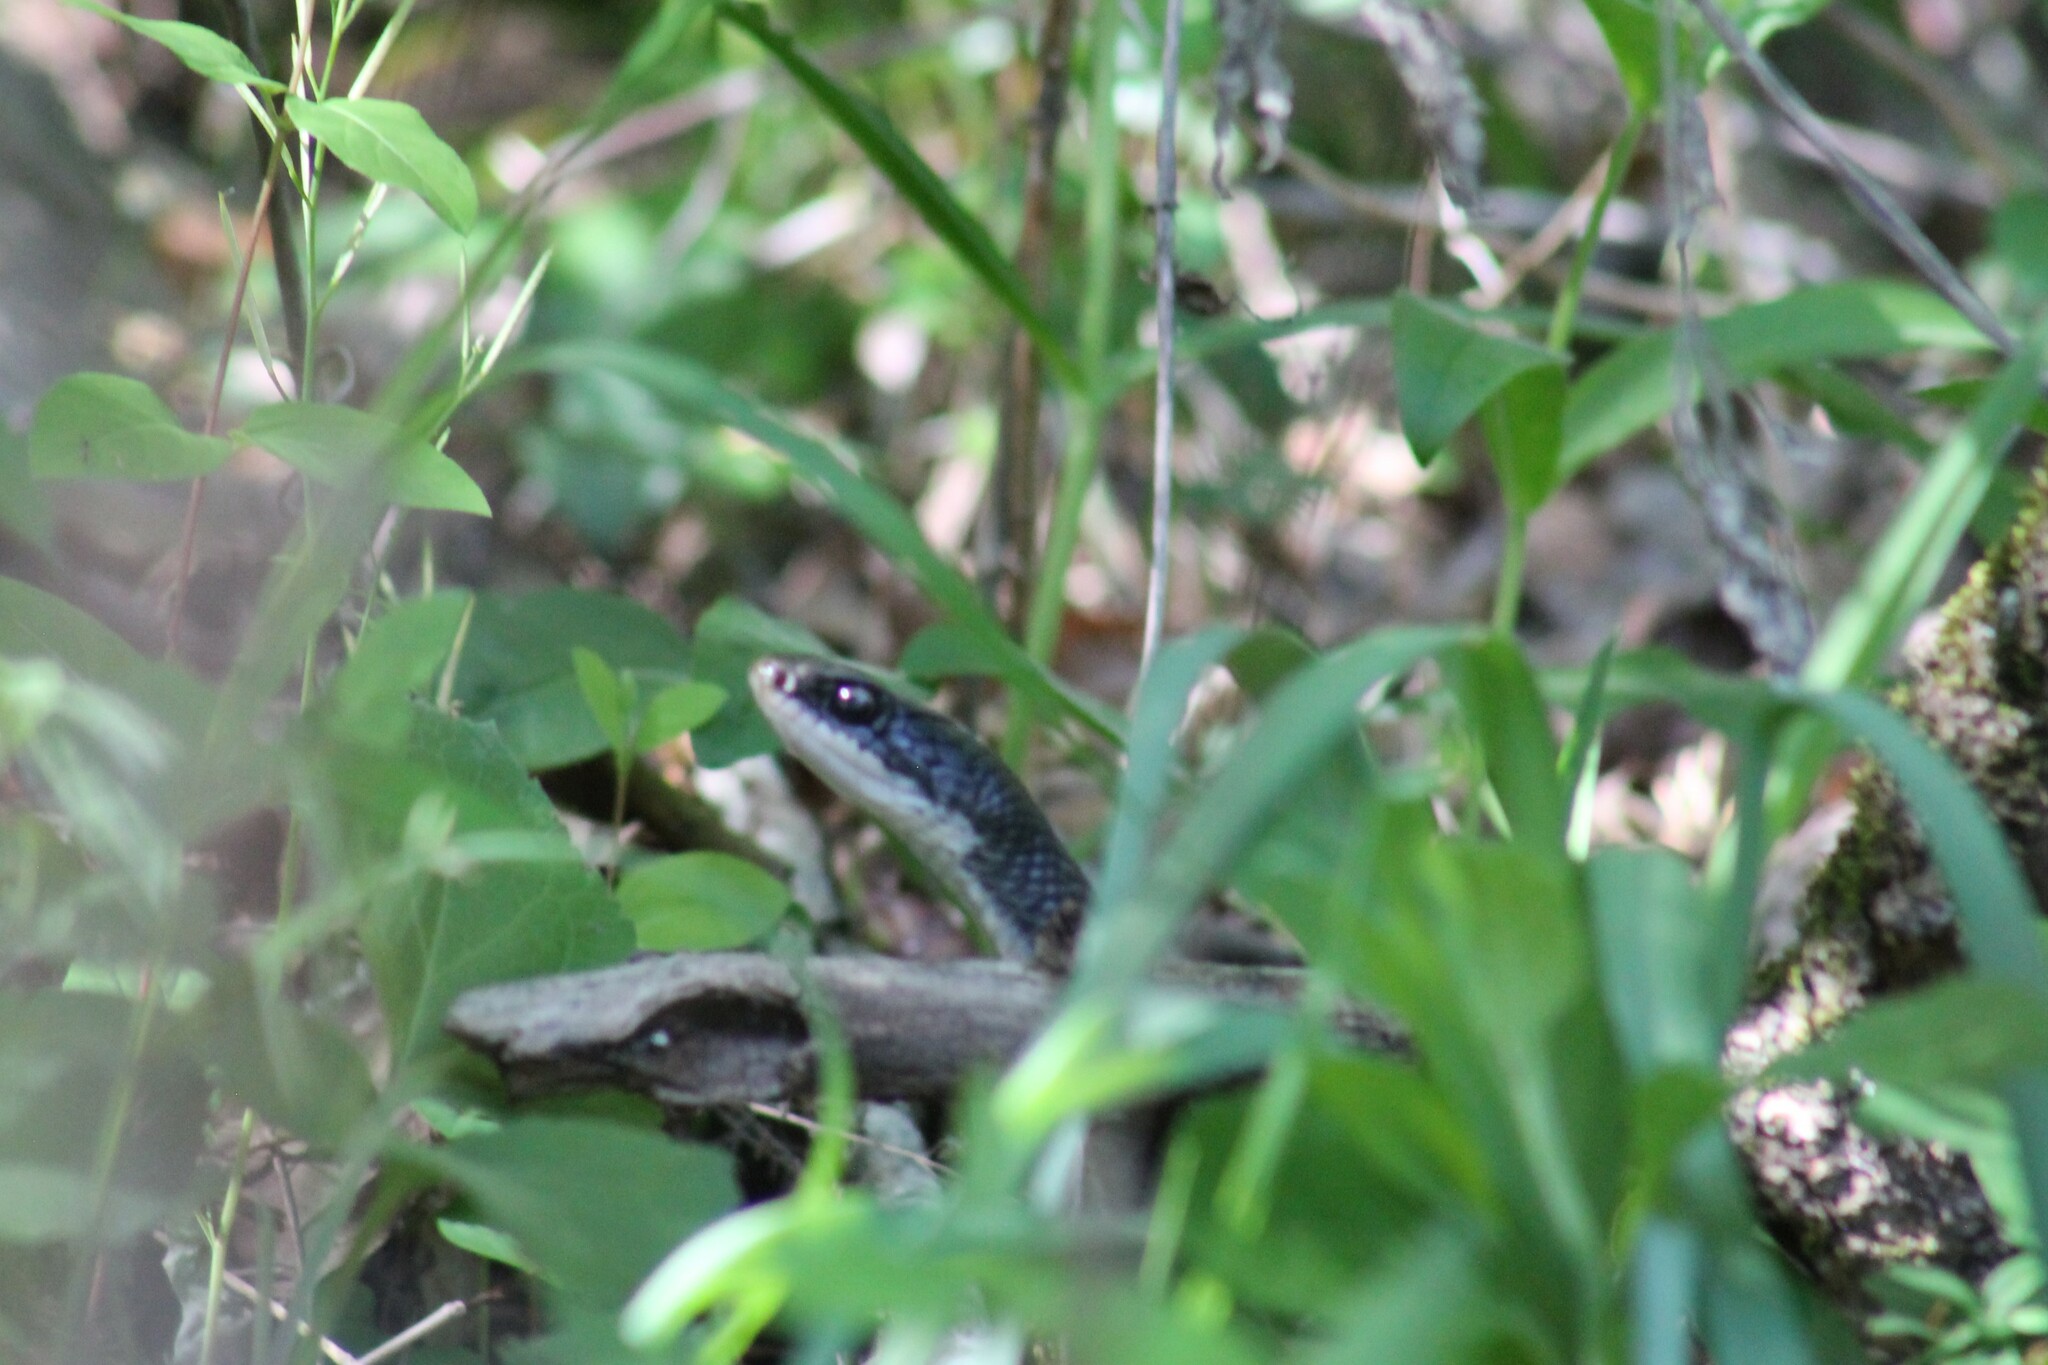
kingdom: Animalia
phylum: Chordata
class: Squamata
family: Colubridae
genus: Coluber
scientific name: Coluber constrictor
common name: Eastern racer
